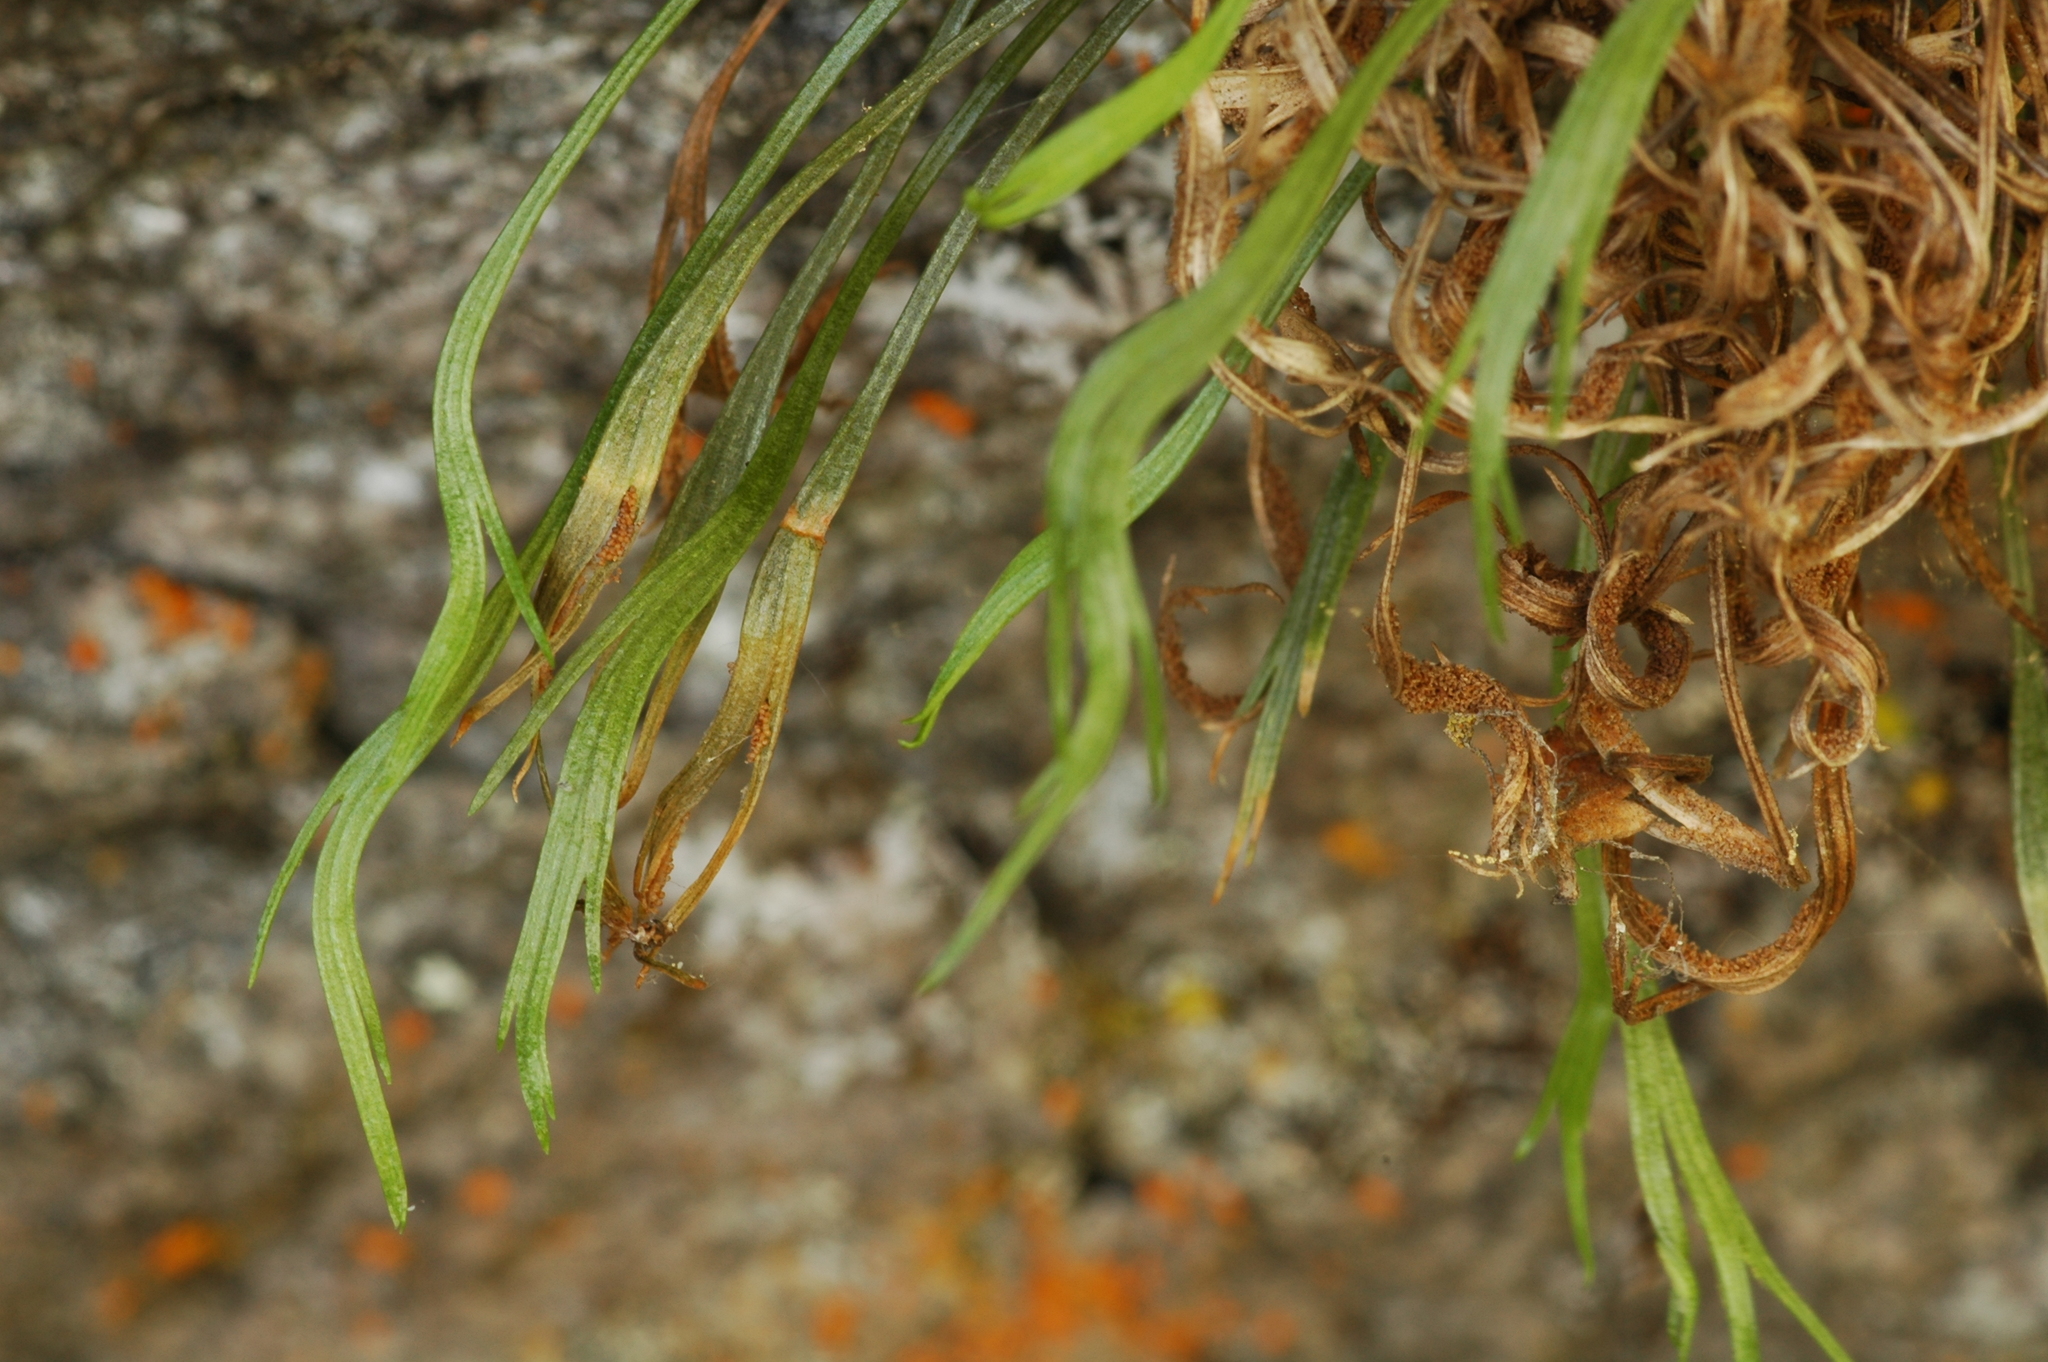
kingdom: Plantae
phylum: Tracheophyta
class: Polypodiopsida
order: Polypodiales
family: Aspleniaceae
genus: Asplenium
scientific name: Asplenium septentrionale
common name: Forked spleenwort
